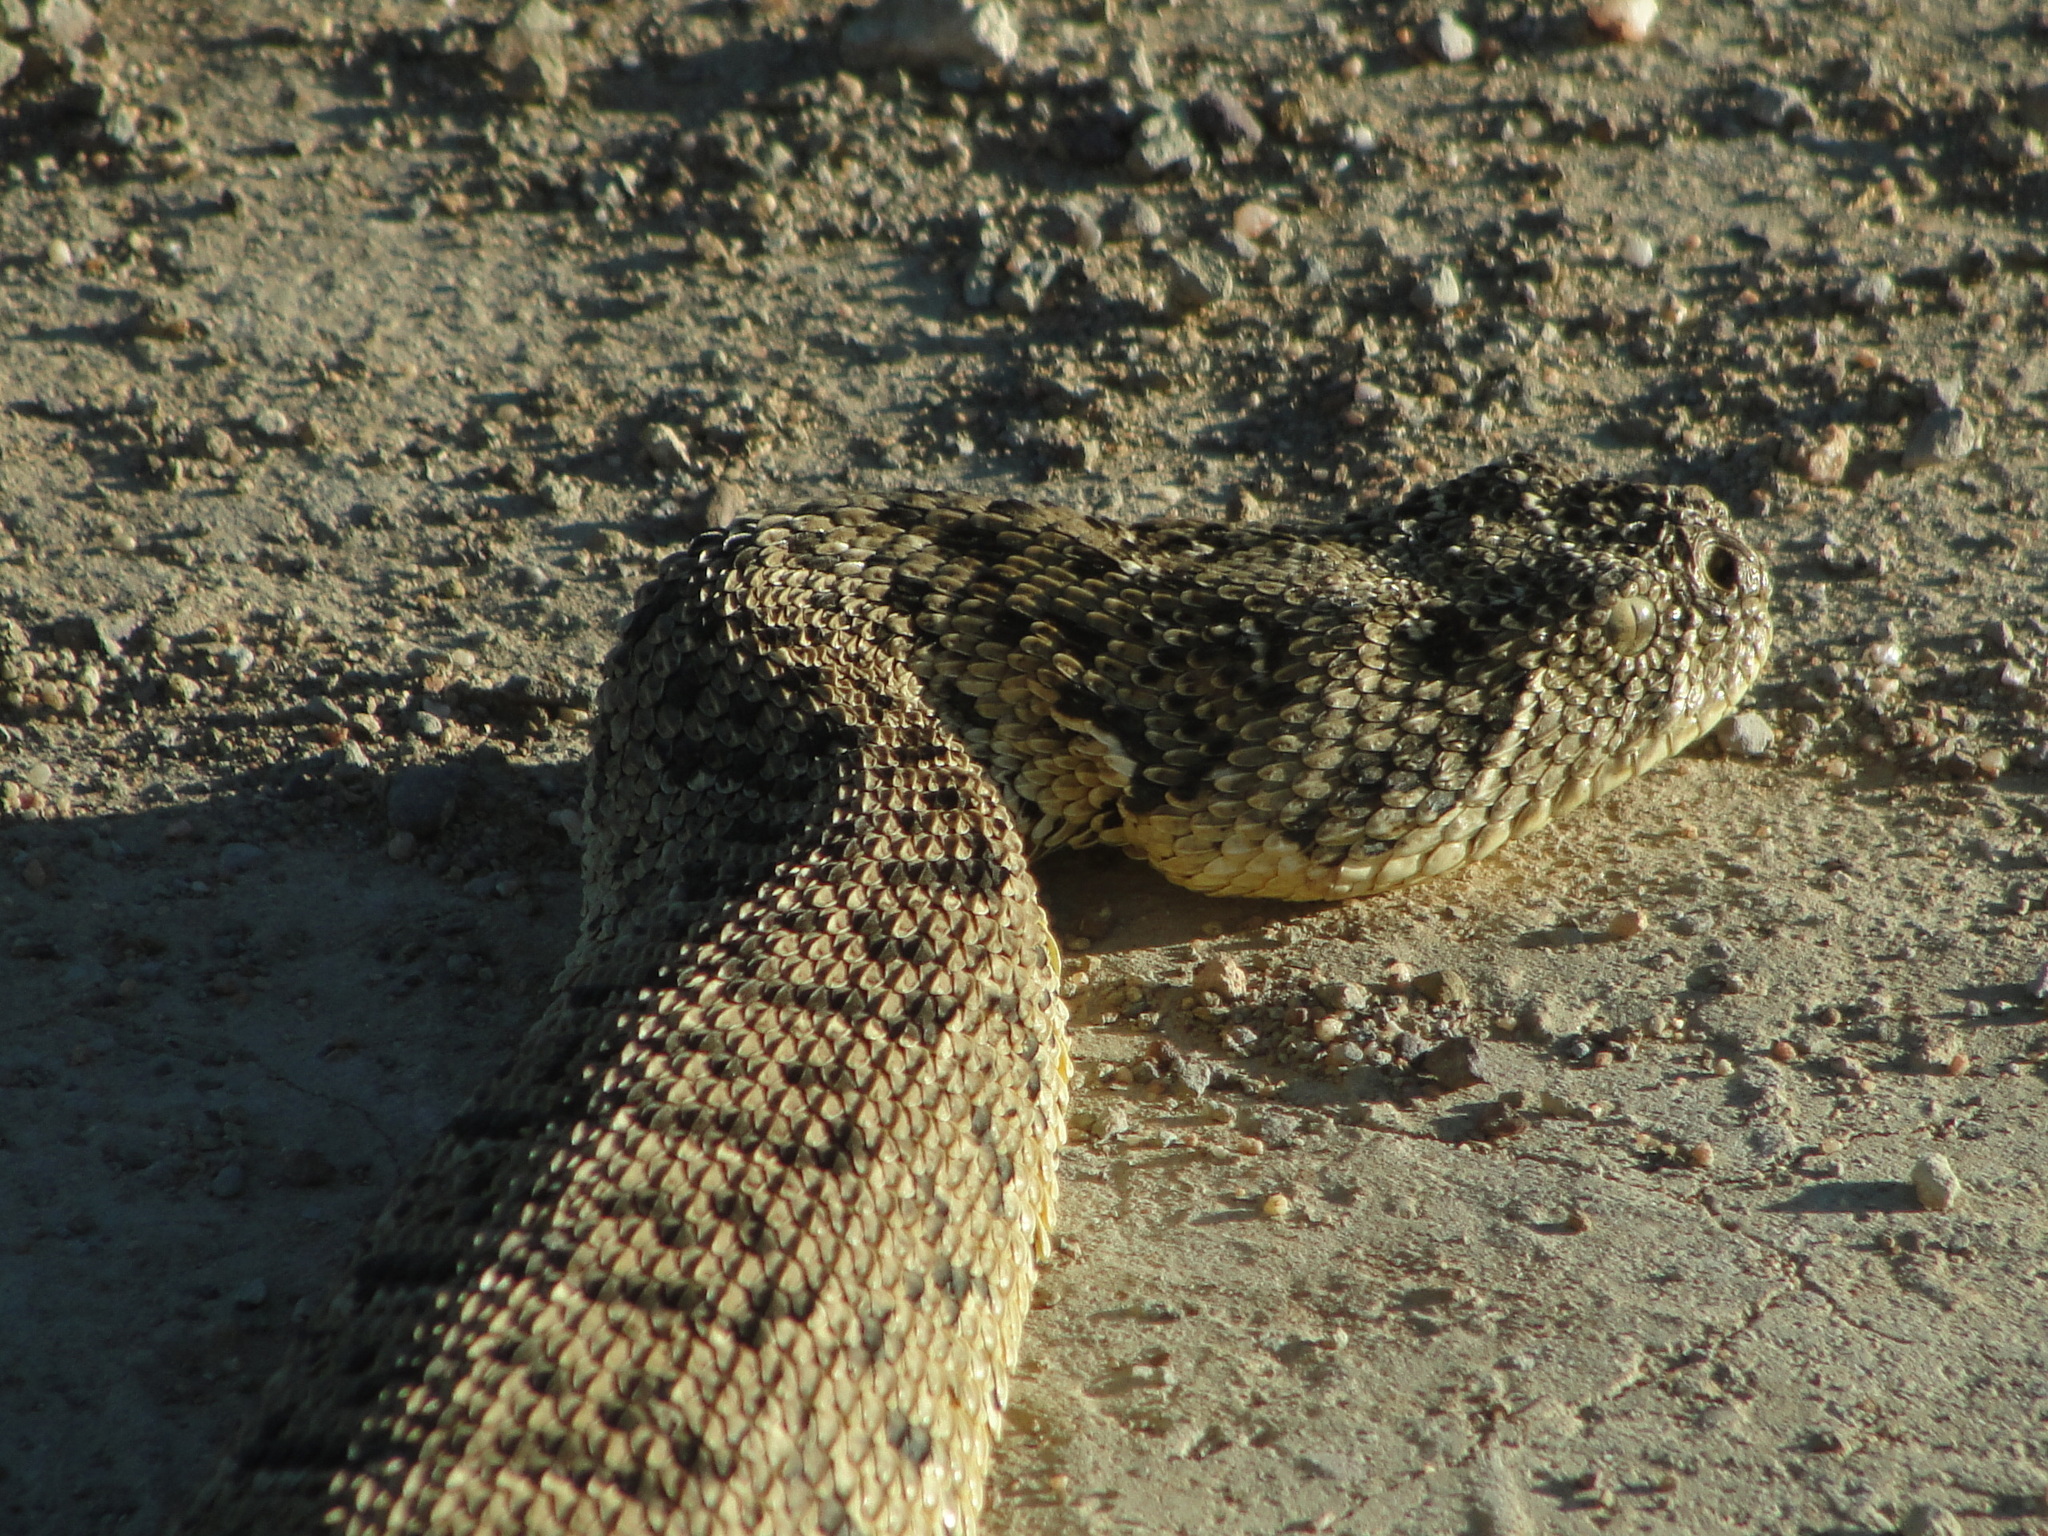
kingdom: Animalia
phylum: Chordata
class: Squamata
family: Viperidae
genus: Bitis
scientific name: Bitis arietans
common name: Puff adder
